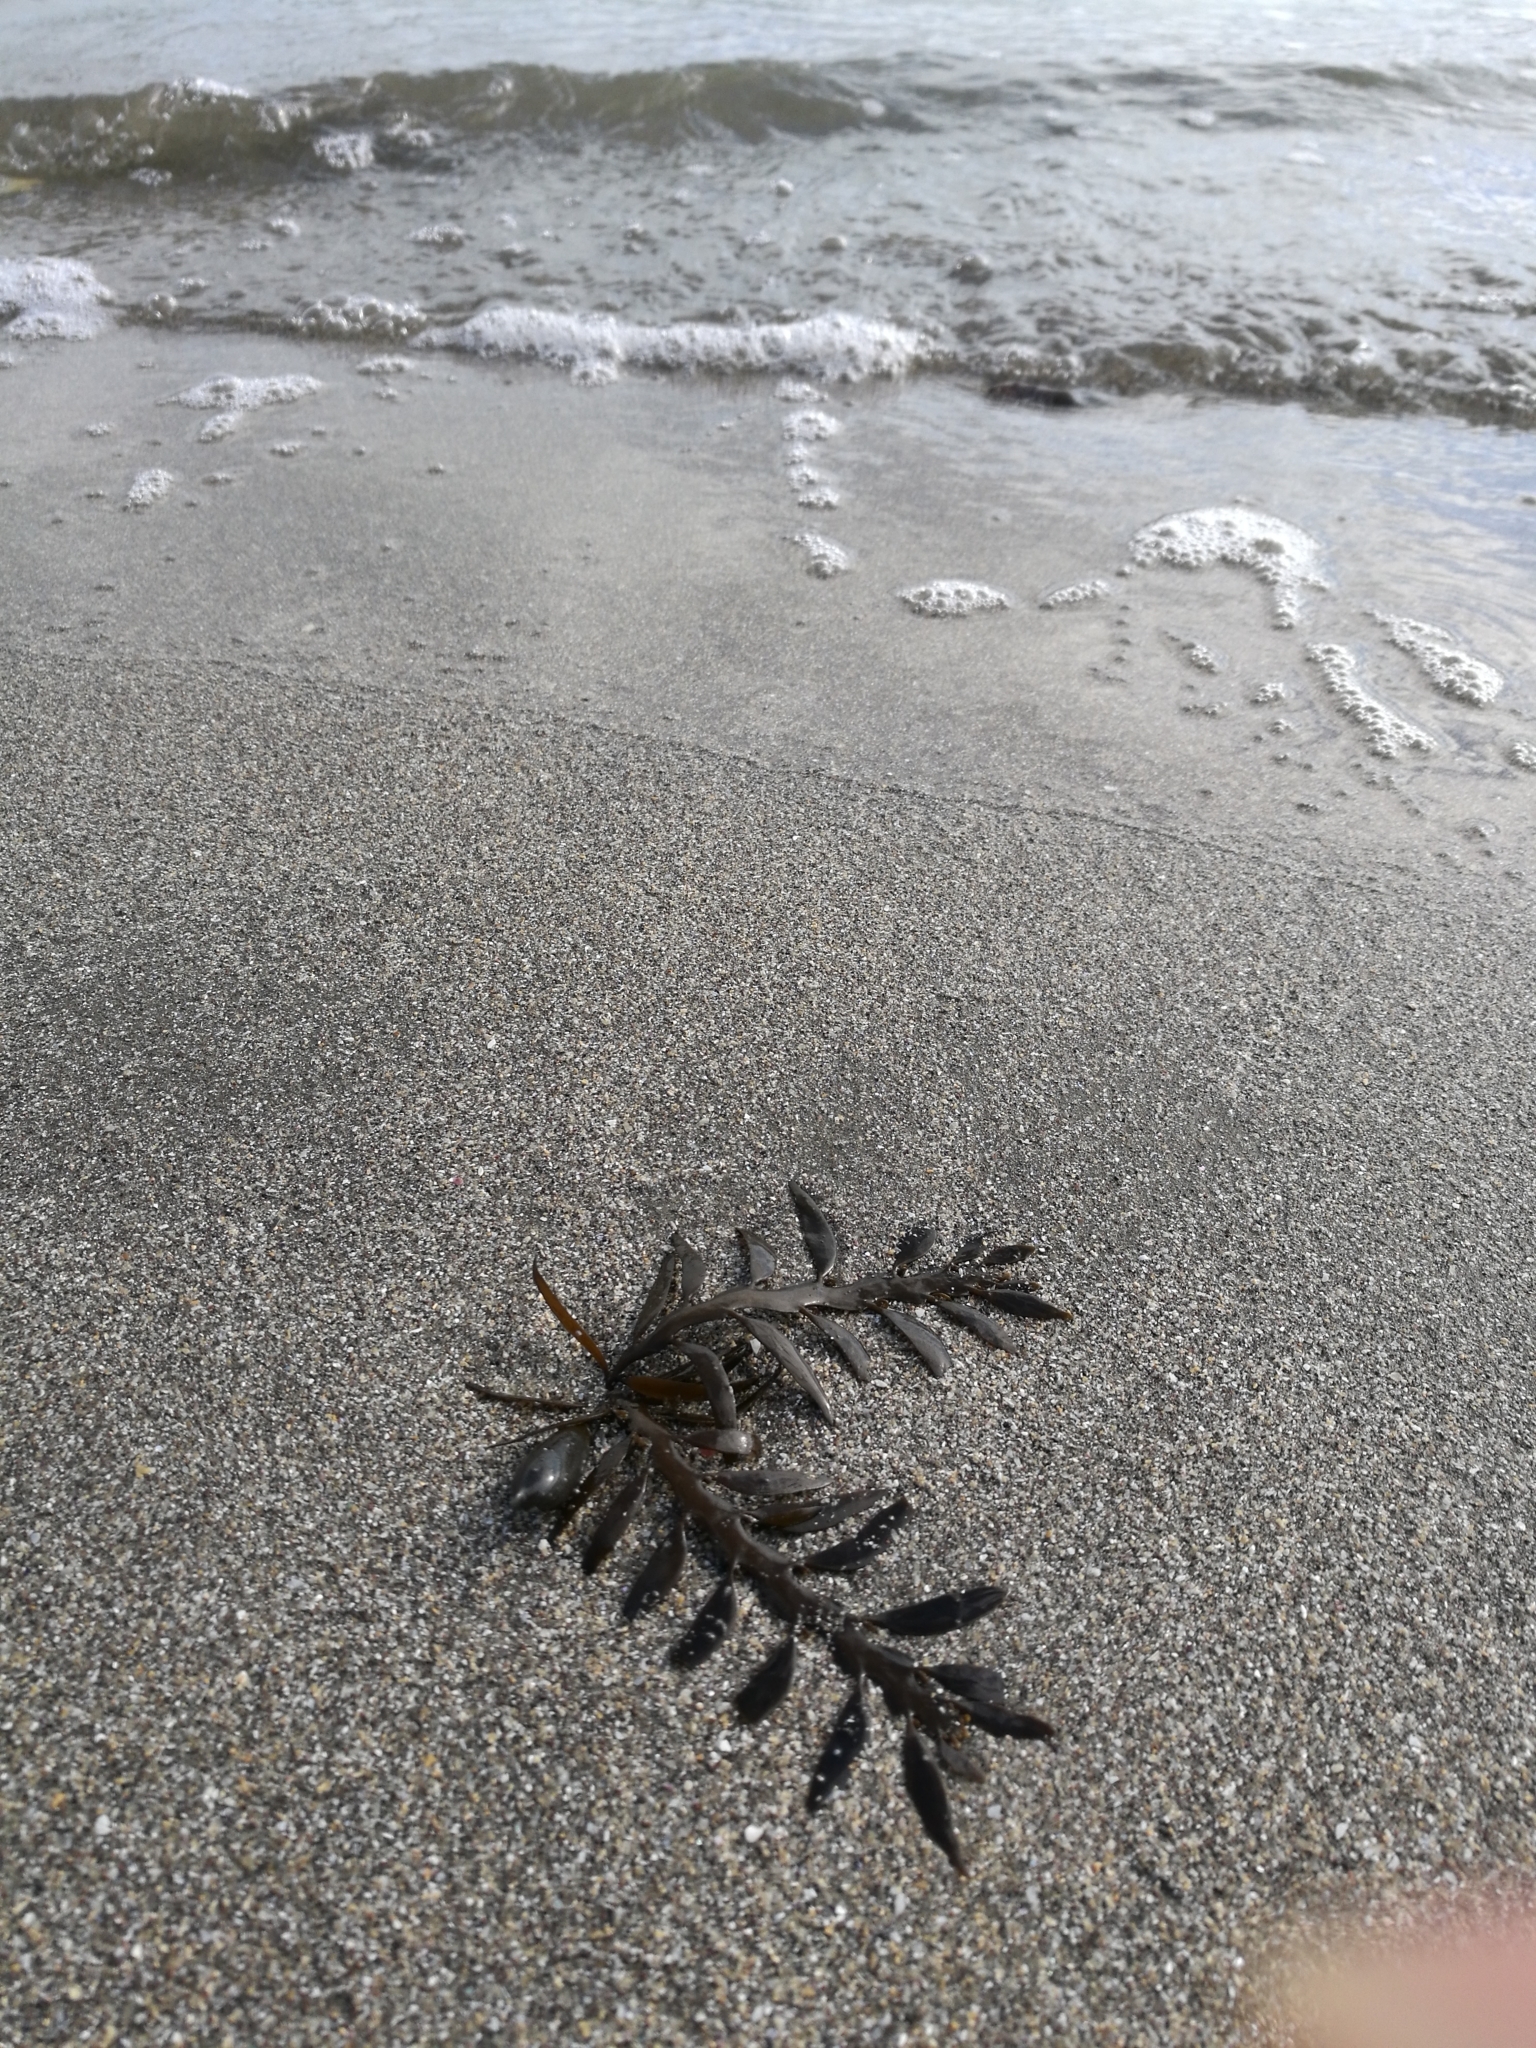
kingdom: Chromista
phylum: Ochrophyta
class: Phaeophyceae
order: Fucales
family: Sargassaceae
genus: Carpophyllum
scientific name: Carpophyllum maschalocarpum
